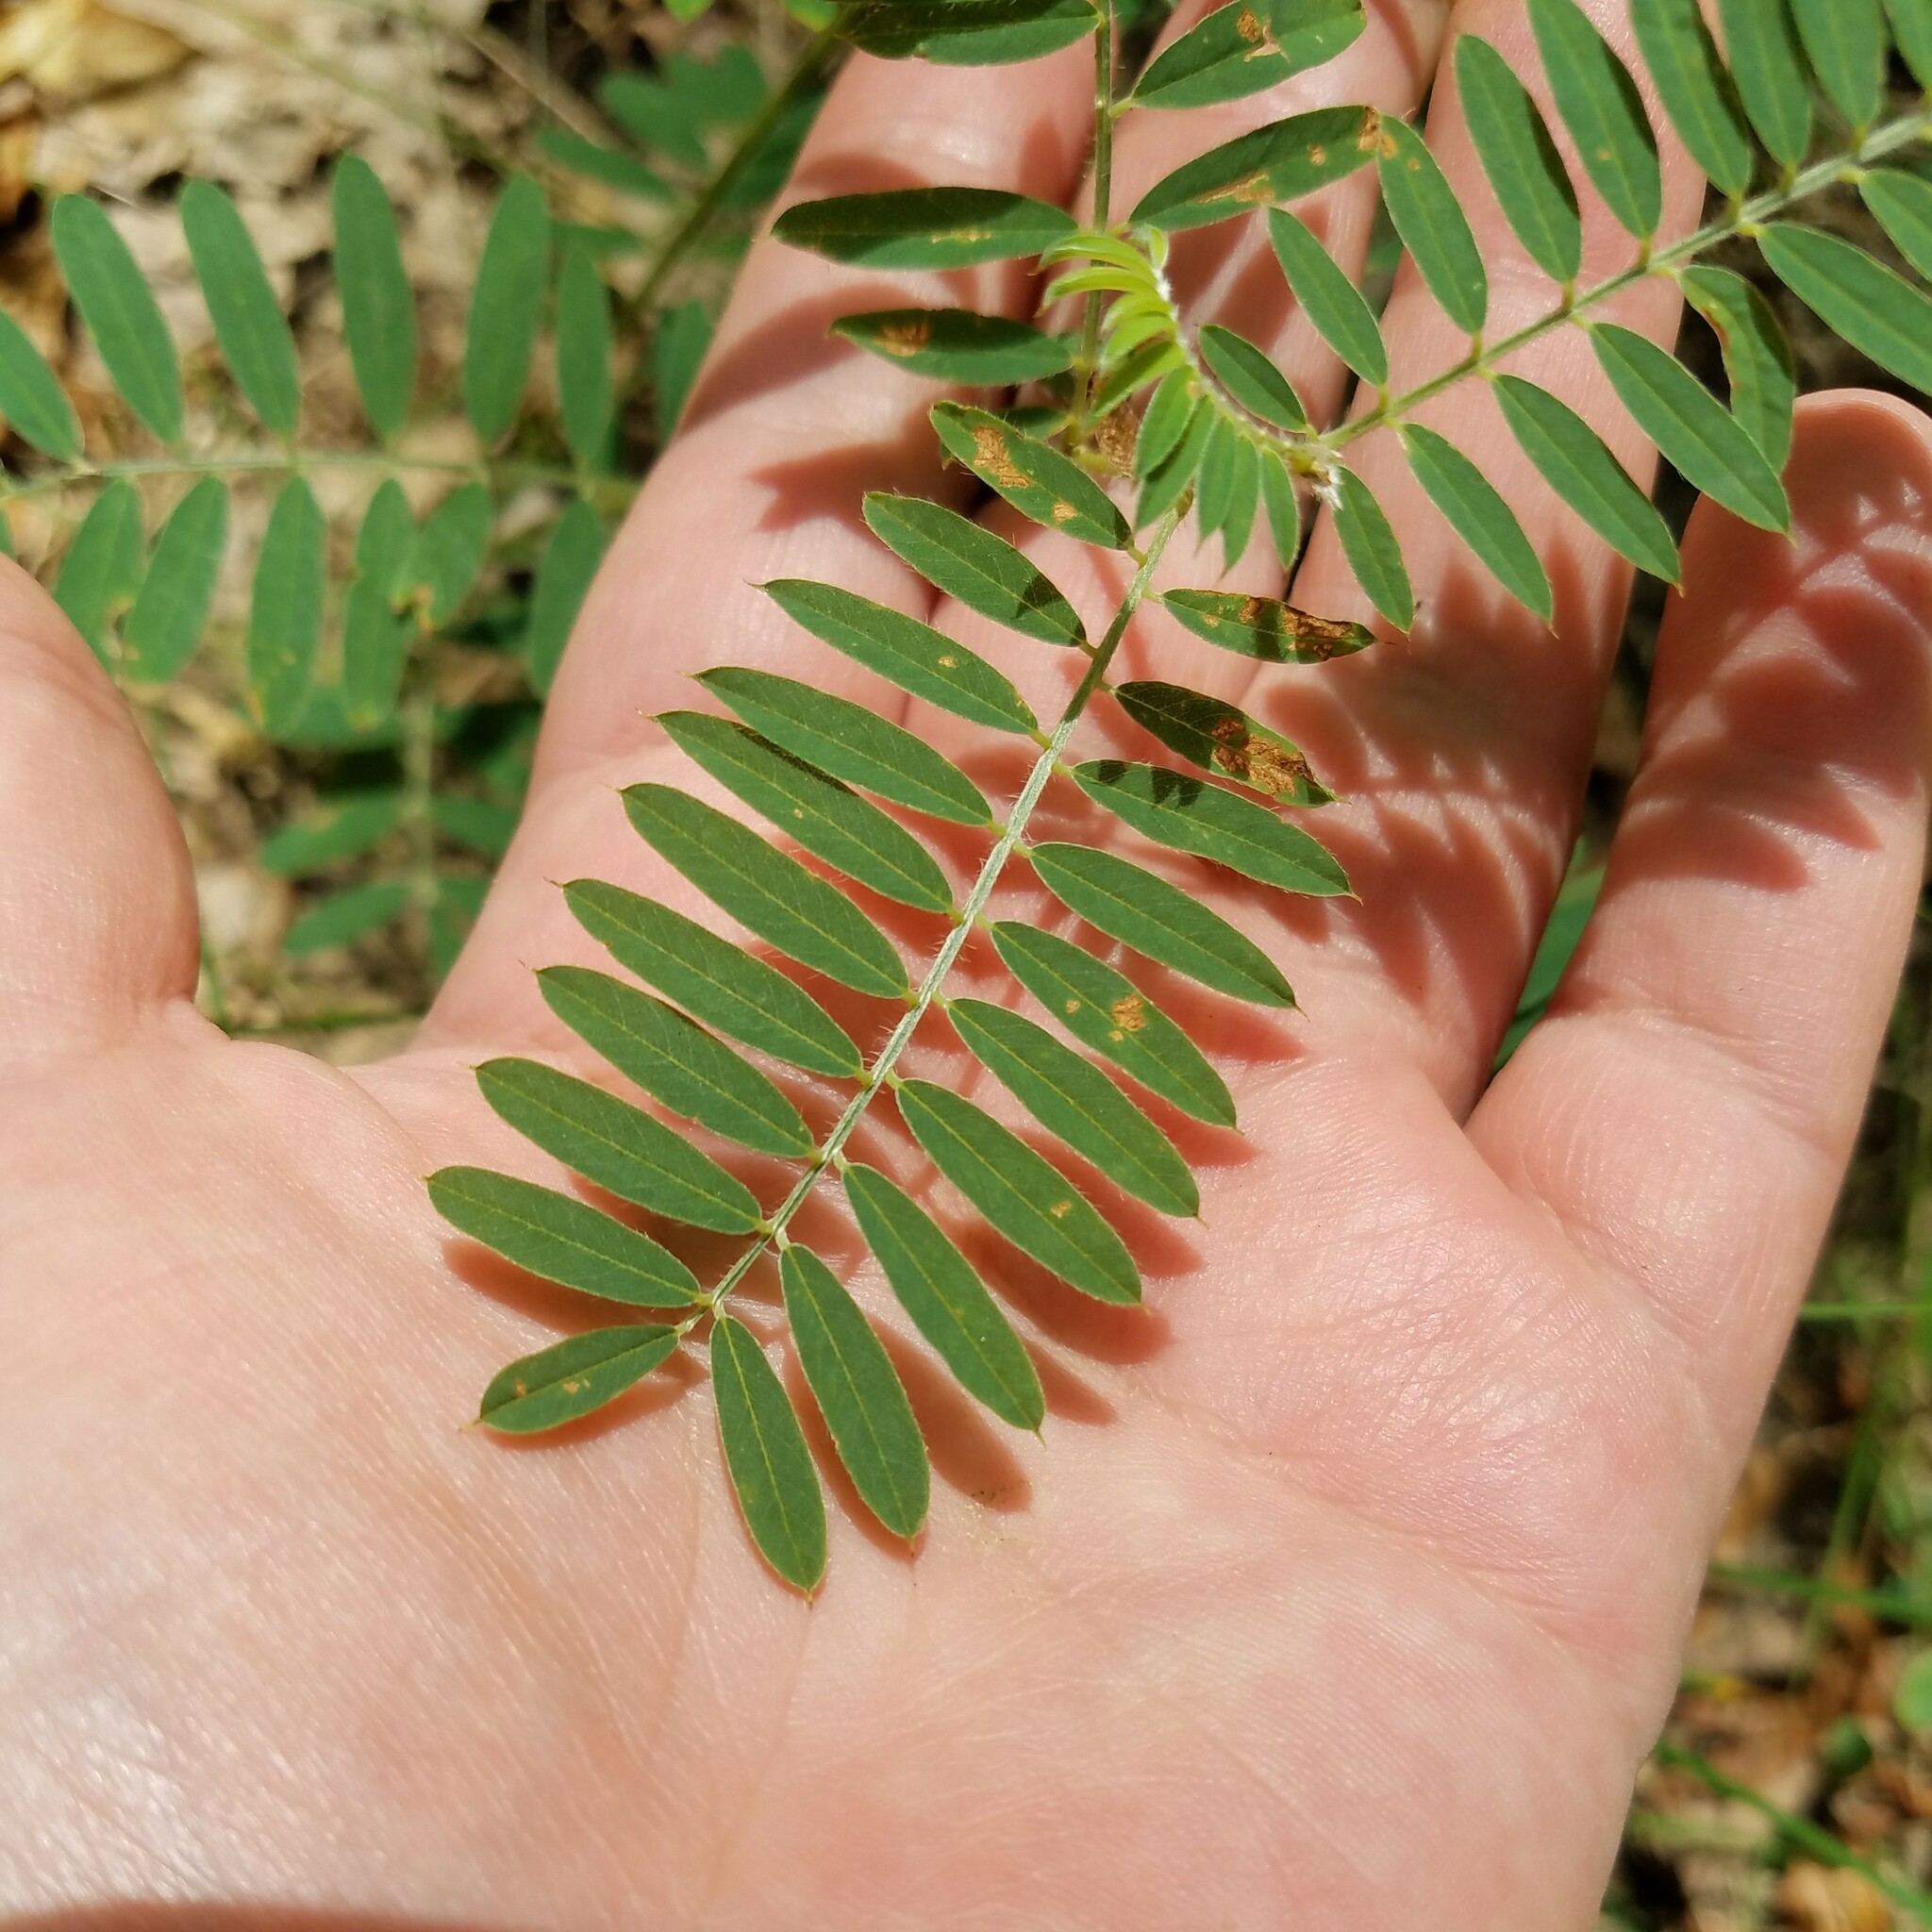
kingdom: Plantae
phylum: Tracheophyta
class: Magnoliopsida
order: Fabales
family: Fabaceae
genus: Tephrosia
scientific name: Tephrosia virginiana
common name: Rabbit-pea
